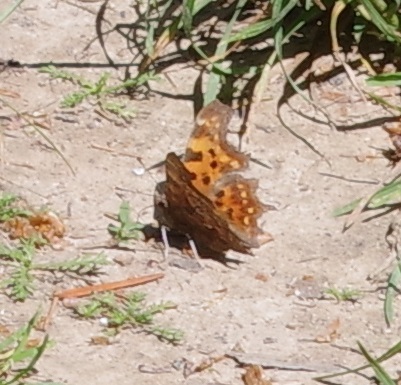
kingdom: Animalia
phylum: Arthropoda
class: Insecta
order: Lepidoptera
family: Nymphalidae
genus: Polygonia
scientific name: Polygonia c-album
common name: Comma
